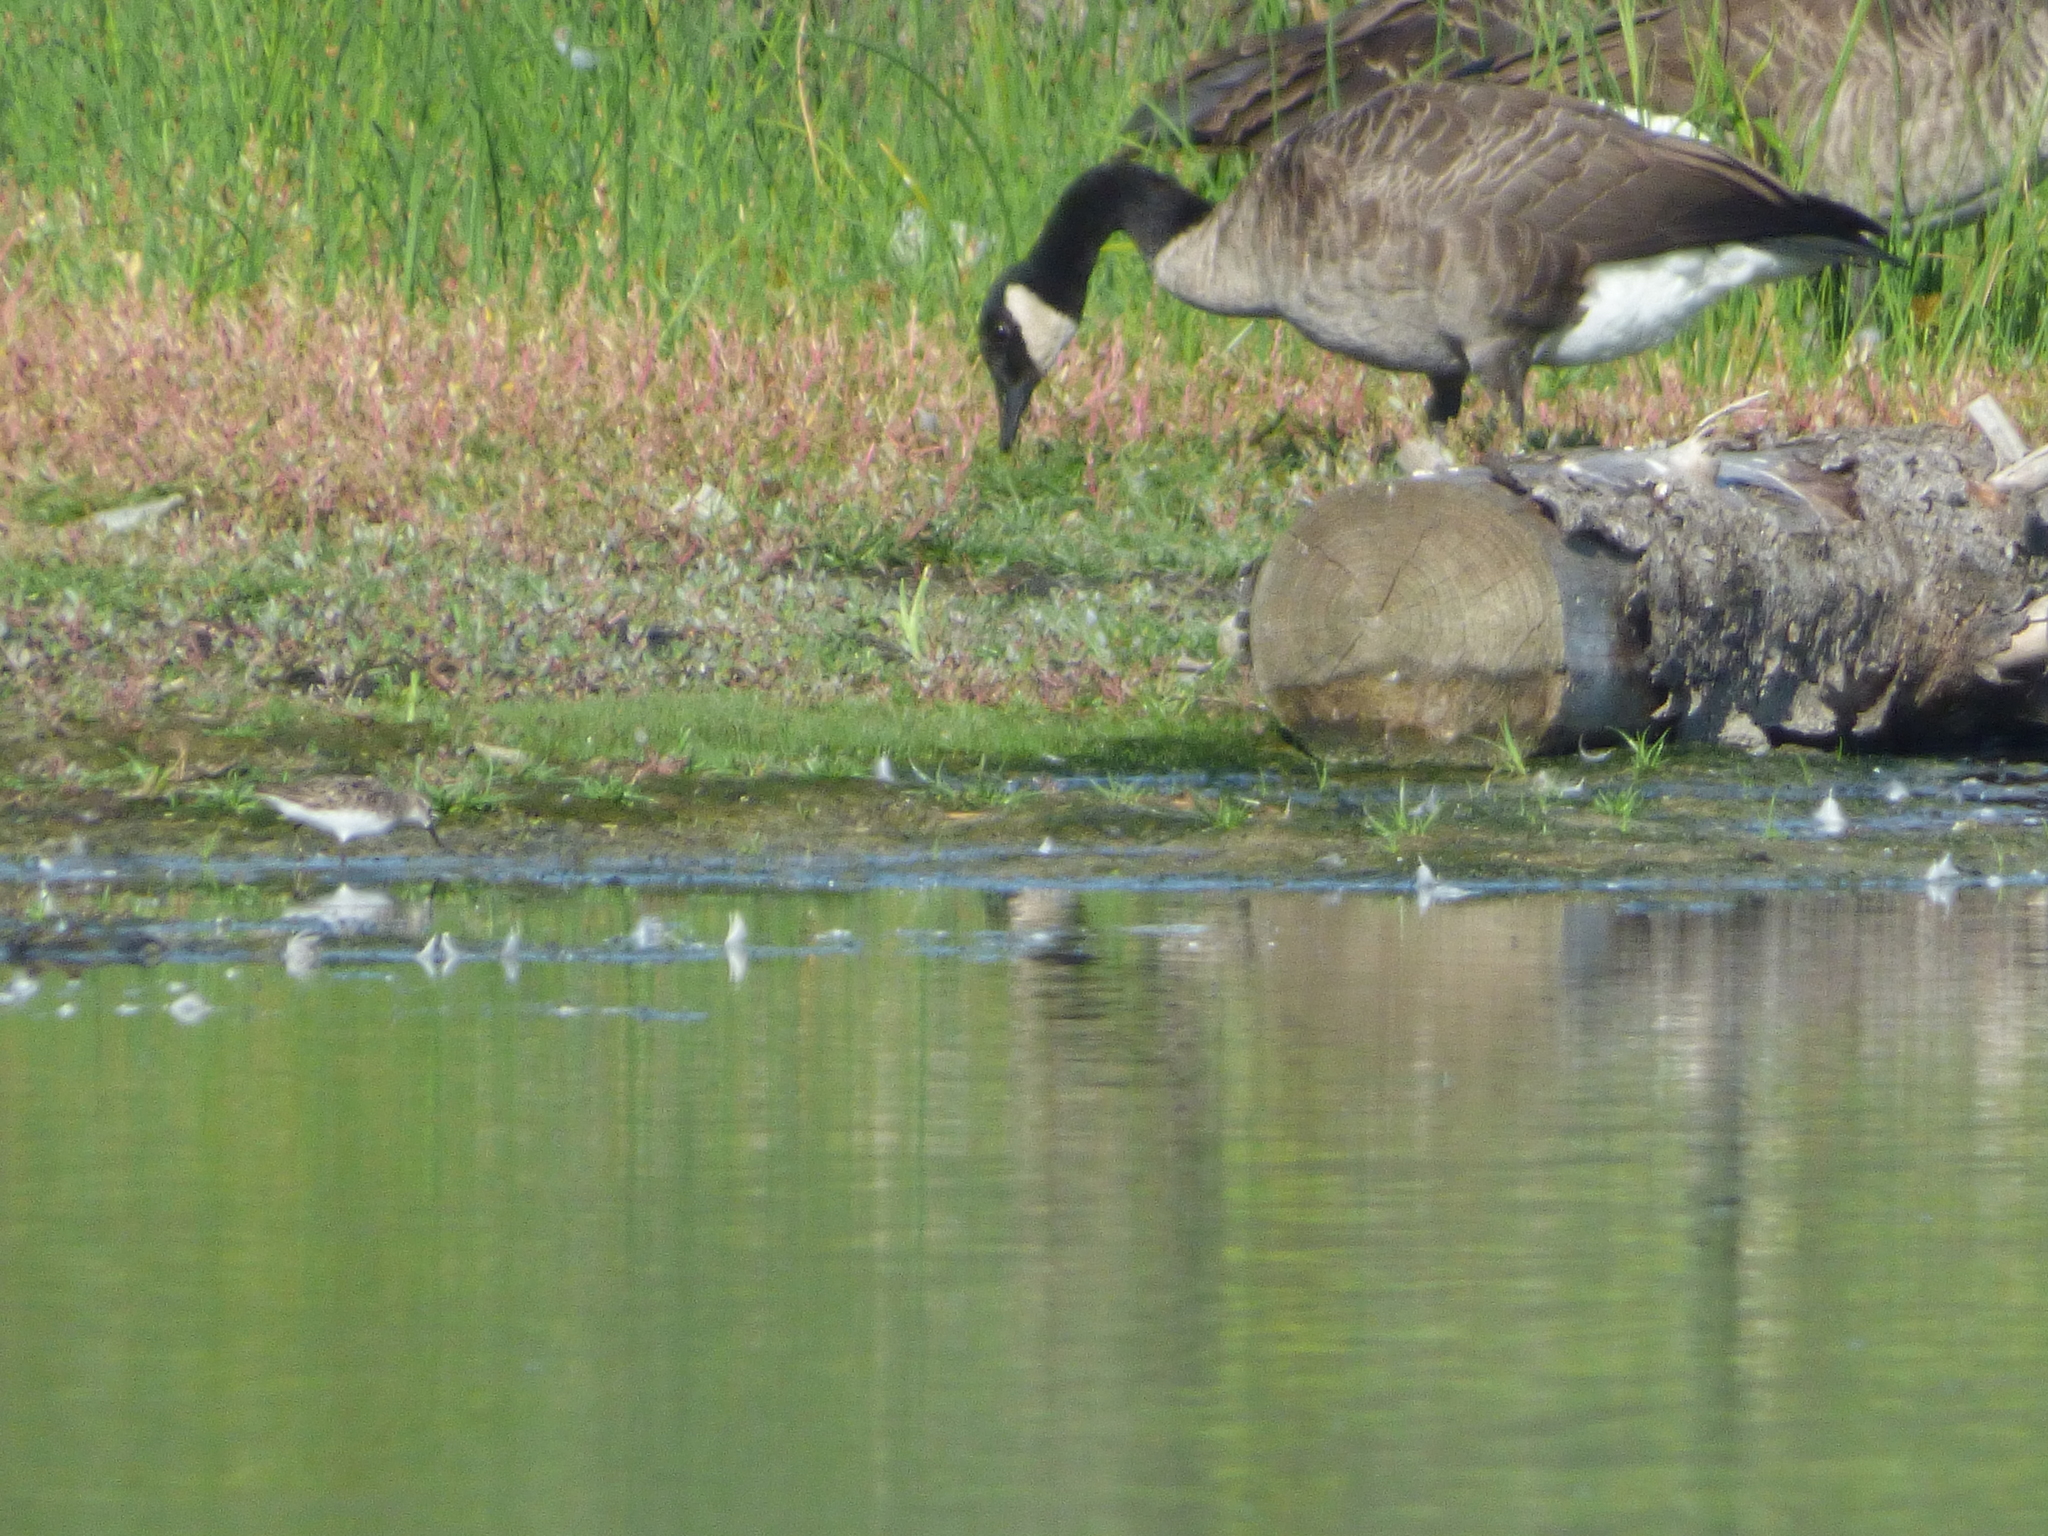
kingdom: Animalia
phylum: Chordata
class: Aves
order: Anseriformes
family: Anatidae
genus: Branta
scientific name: Branta canadensis
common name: Canada goose
